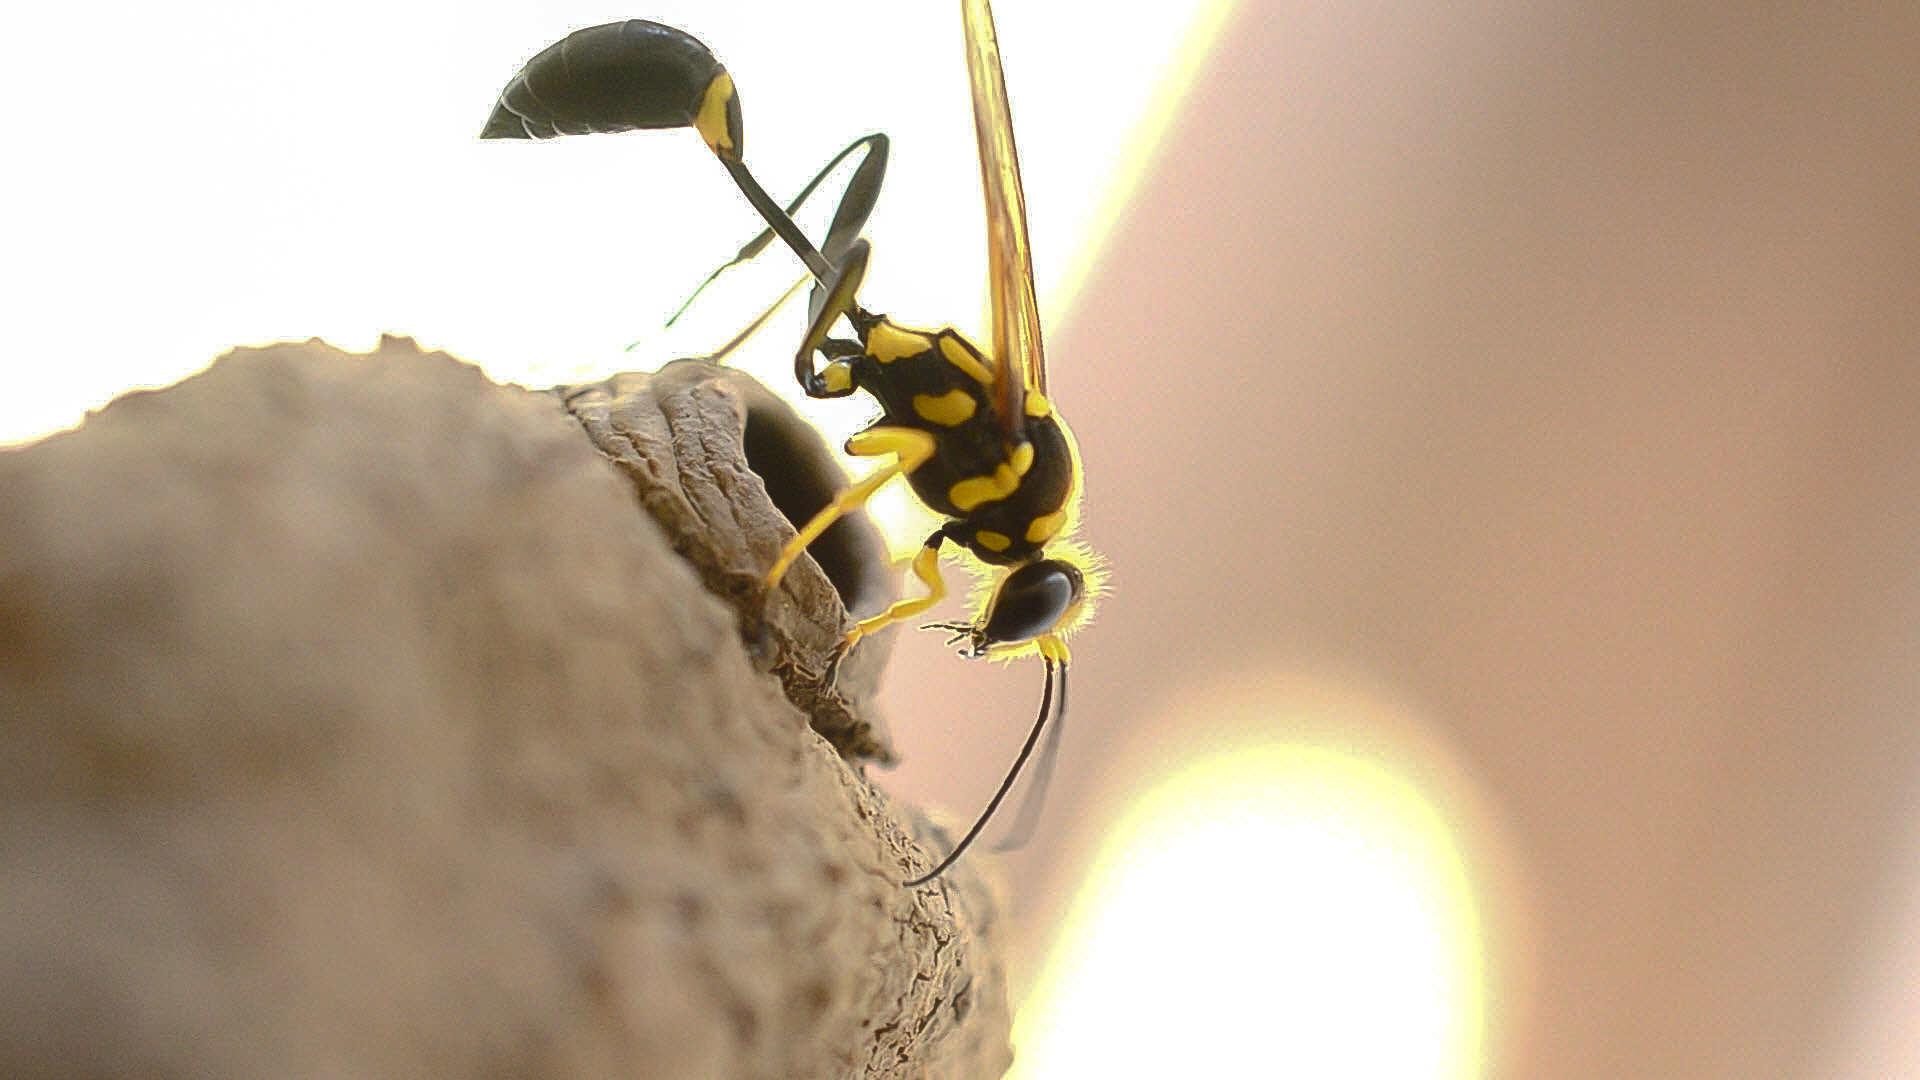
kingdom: Animalia
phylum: Arthropoda
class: Insecta
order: Hymenoptera
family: Sphecidae
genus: Sceliphron
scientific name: Sceliphron fistularium
